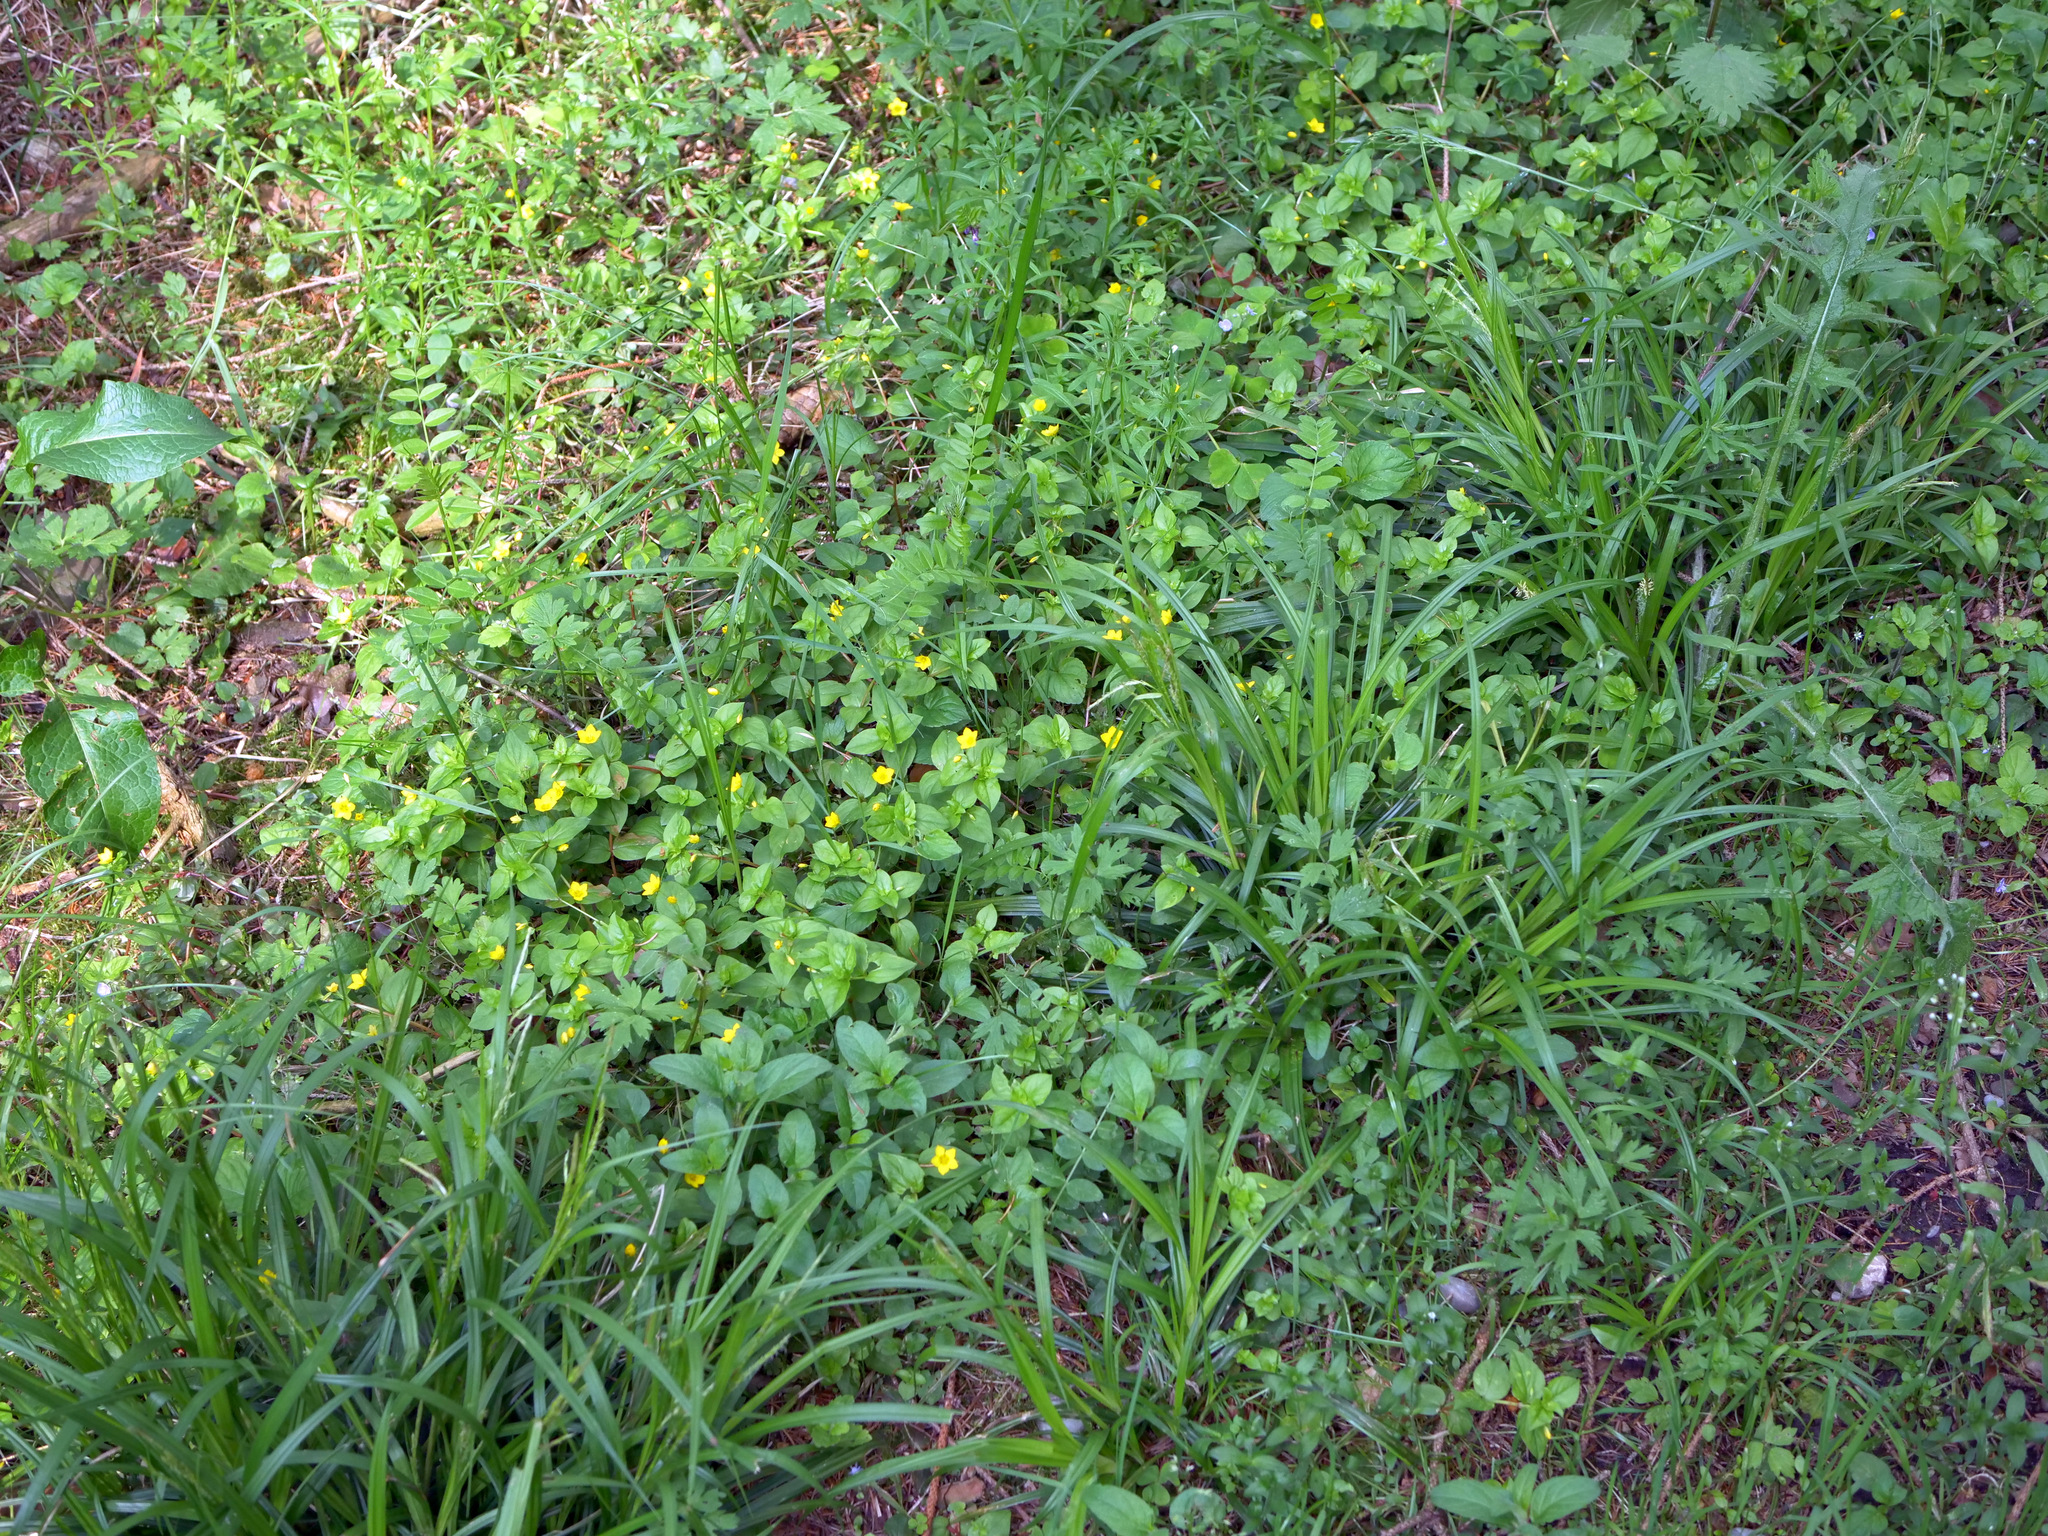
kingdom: Plantae
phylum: Tracheophyta
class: Magnoliopsida
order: Ericales
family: Primulaceae
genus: Lysimachia
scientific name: Lysimachia nemorum
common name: Yellow pimpernel
